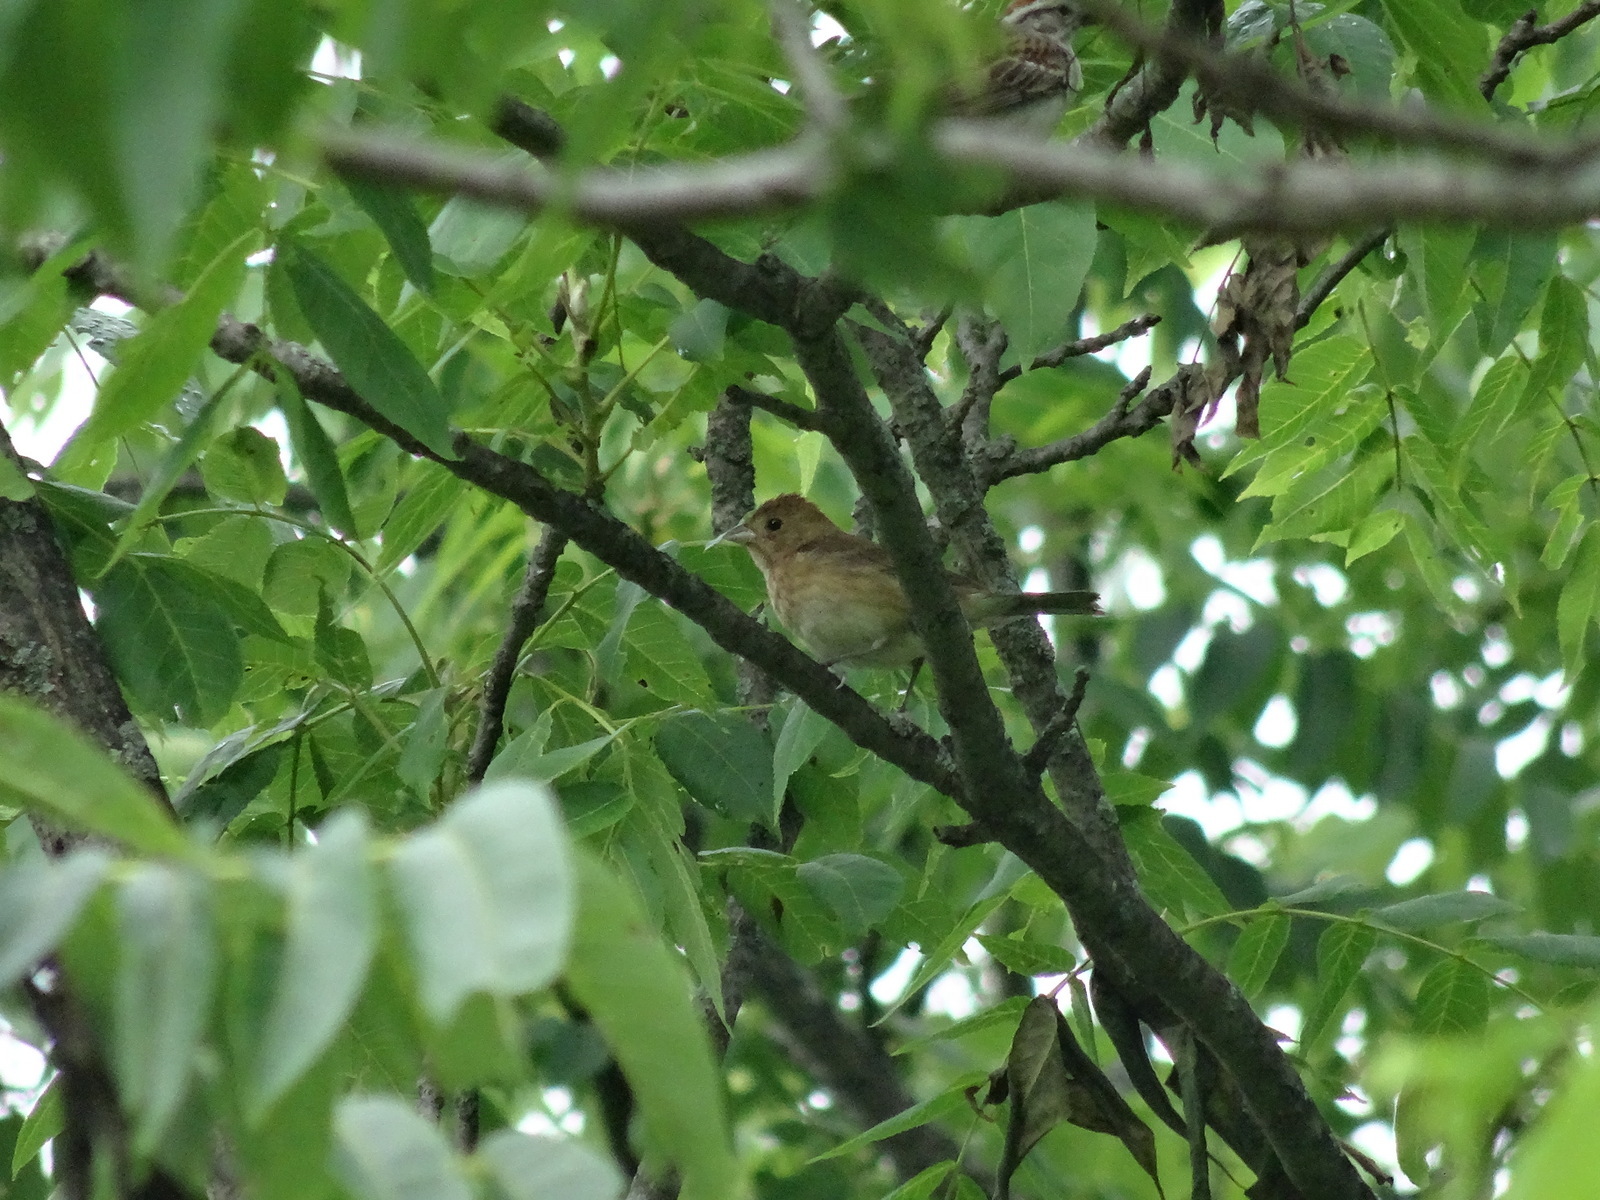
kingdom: Animalia
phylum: Chordata
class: Aves
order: Passeriformes
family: Cardinalidae
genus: Passerina
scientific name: Passerina cyanea
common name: Indigo bunting
